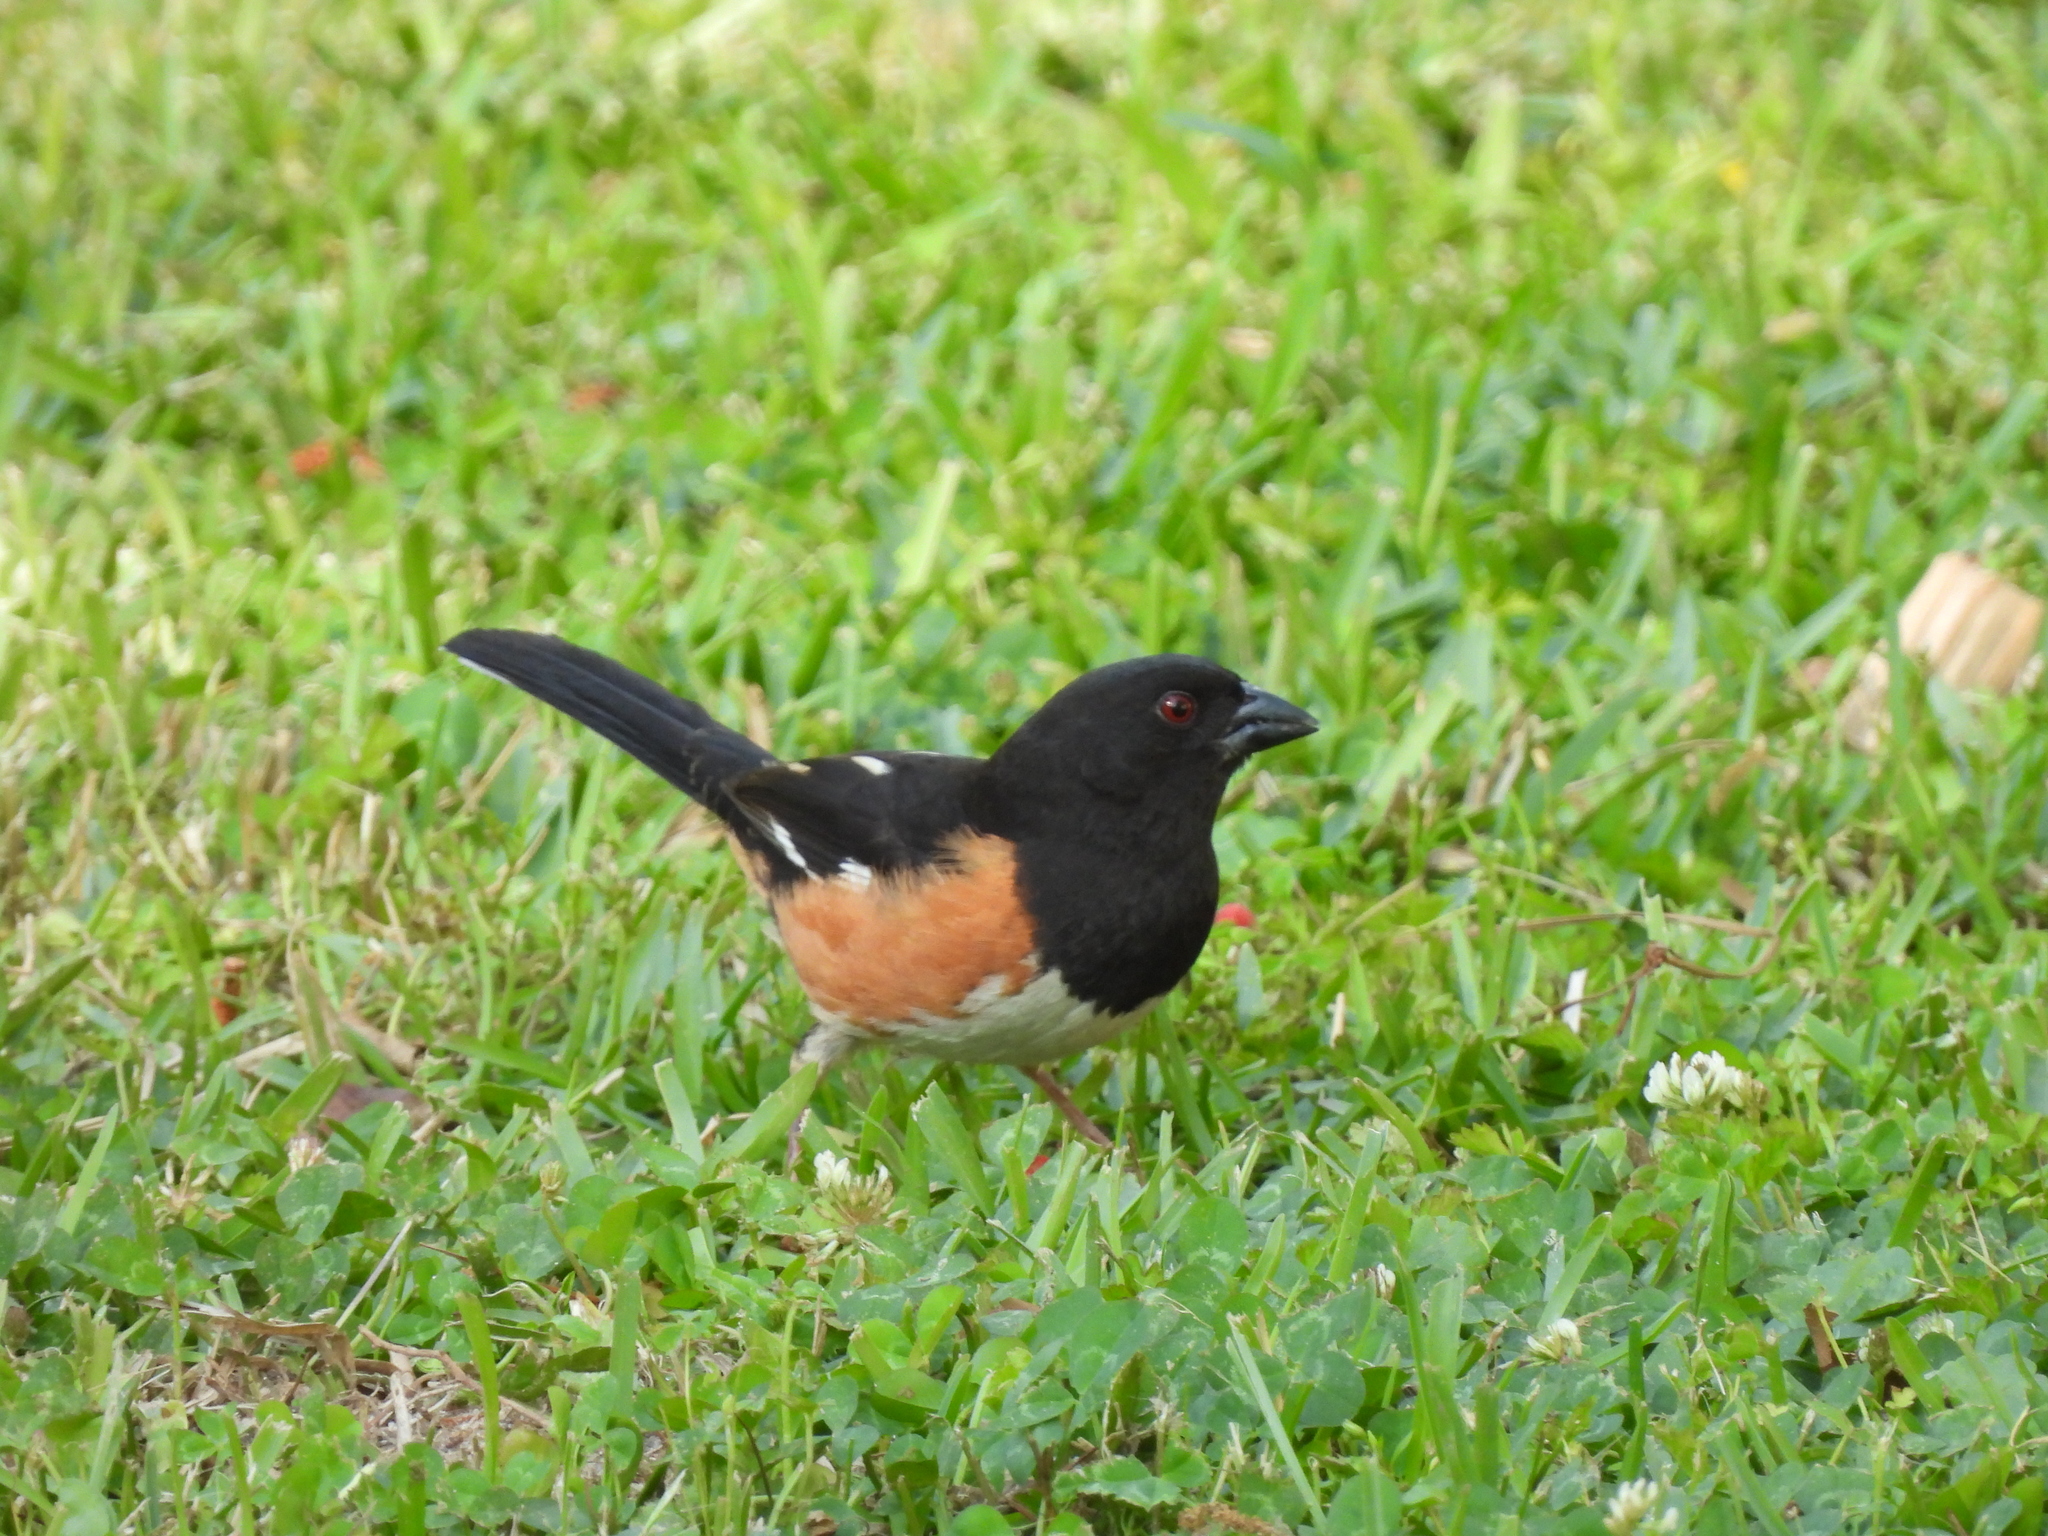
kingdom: Animalia
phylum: Chordata
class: Aves
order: Passeriformes
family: Passerellidae
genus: Pipilo
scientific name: Pipilo erythrophthalmus
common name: Eastern towhee
